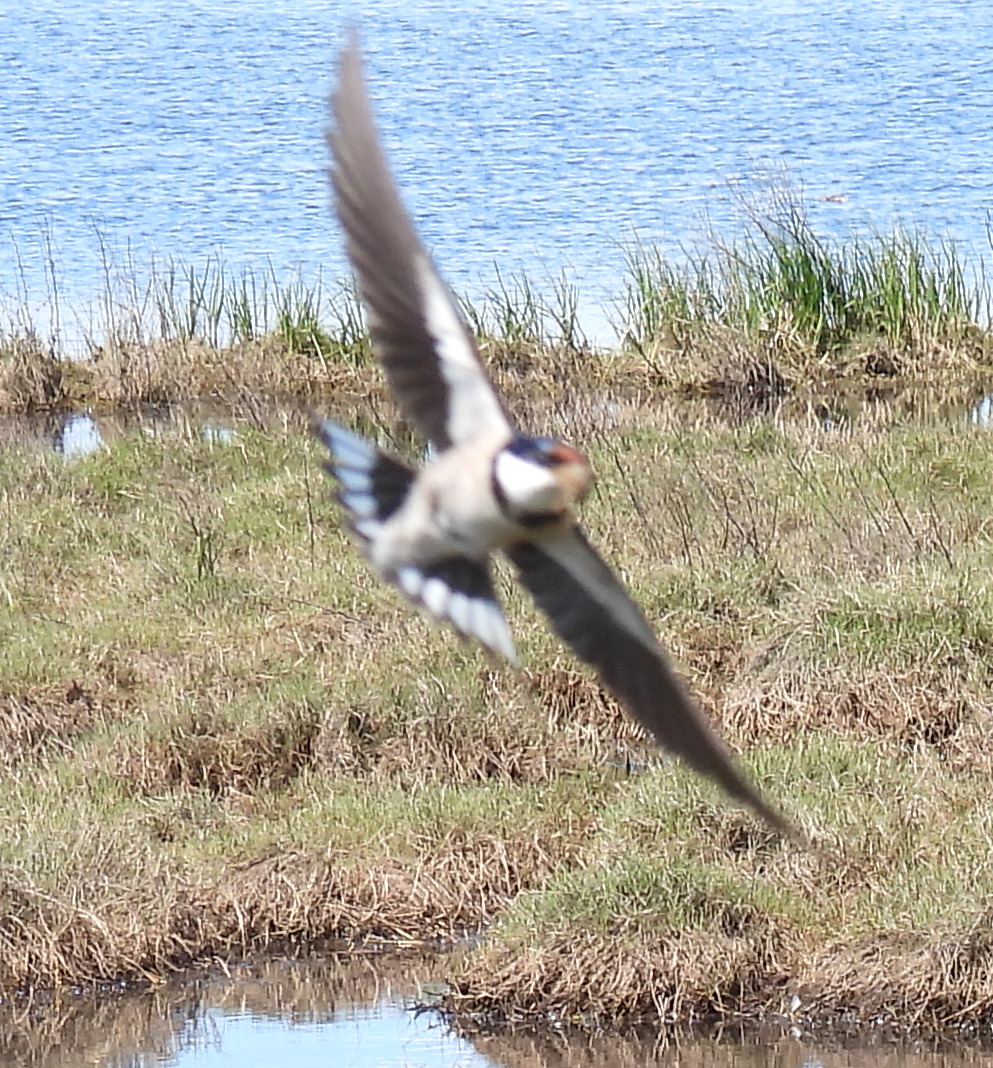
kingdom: Animalia
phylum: Chordata
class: Aves
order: Passeriformes
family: Hirundinidae
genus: Hirundo
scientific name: Hirundo albigularis
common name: White-throated swallow
